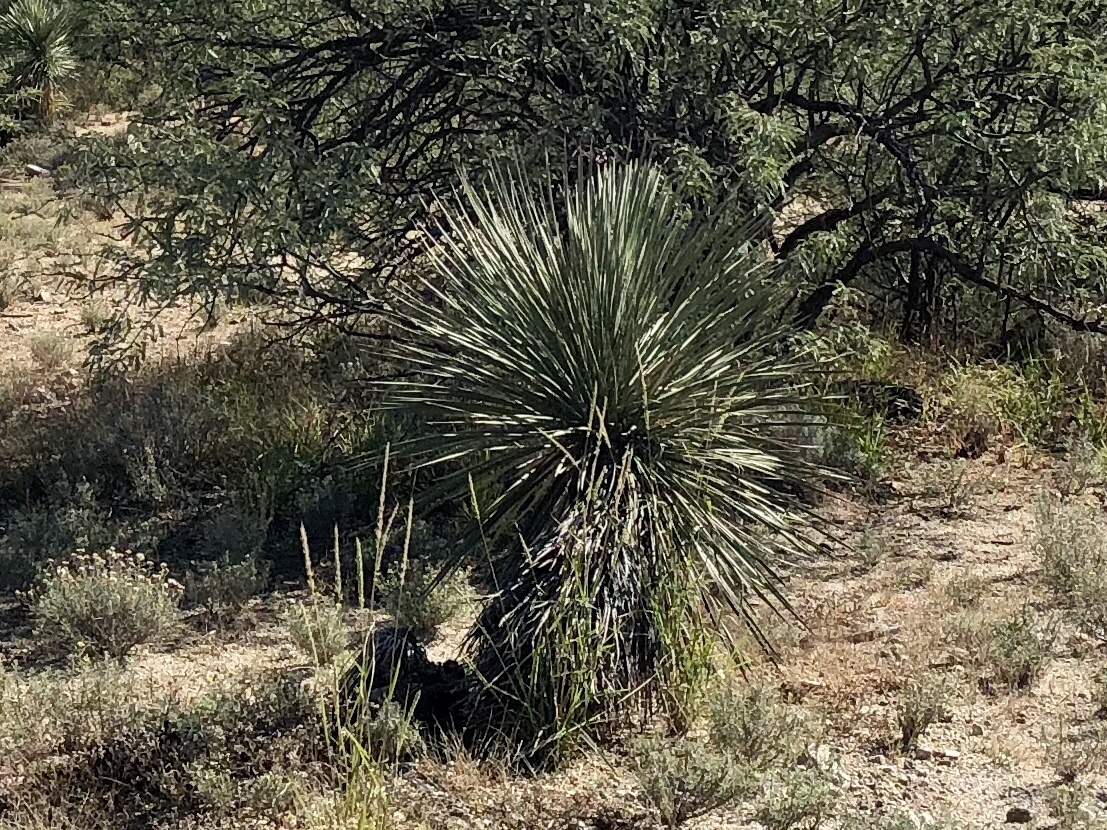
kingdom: Plantae
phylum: Tracheophyta
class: Liliopsida
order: Asparagales
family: Asparagaceae
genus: Yucca
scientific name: Yucca elata
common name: Palmella
